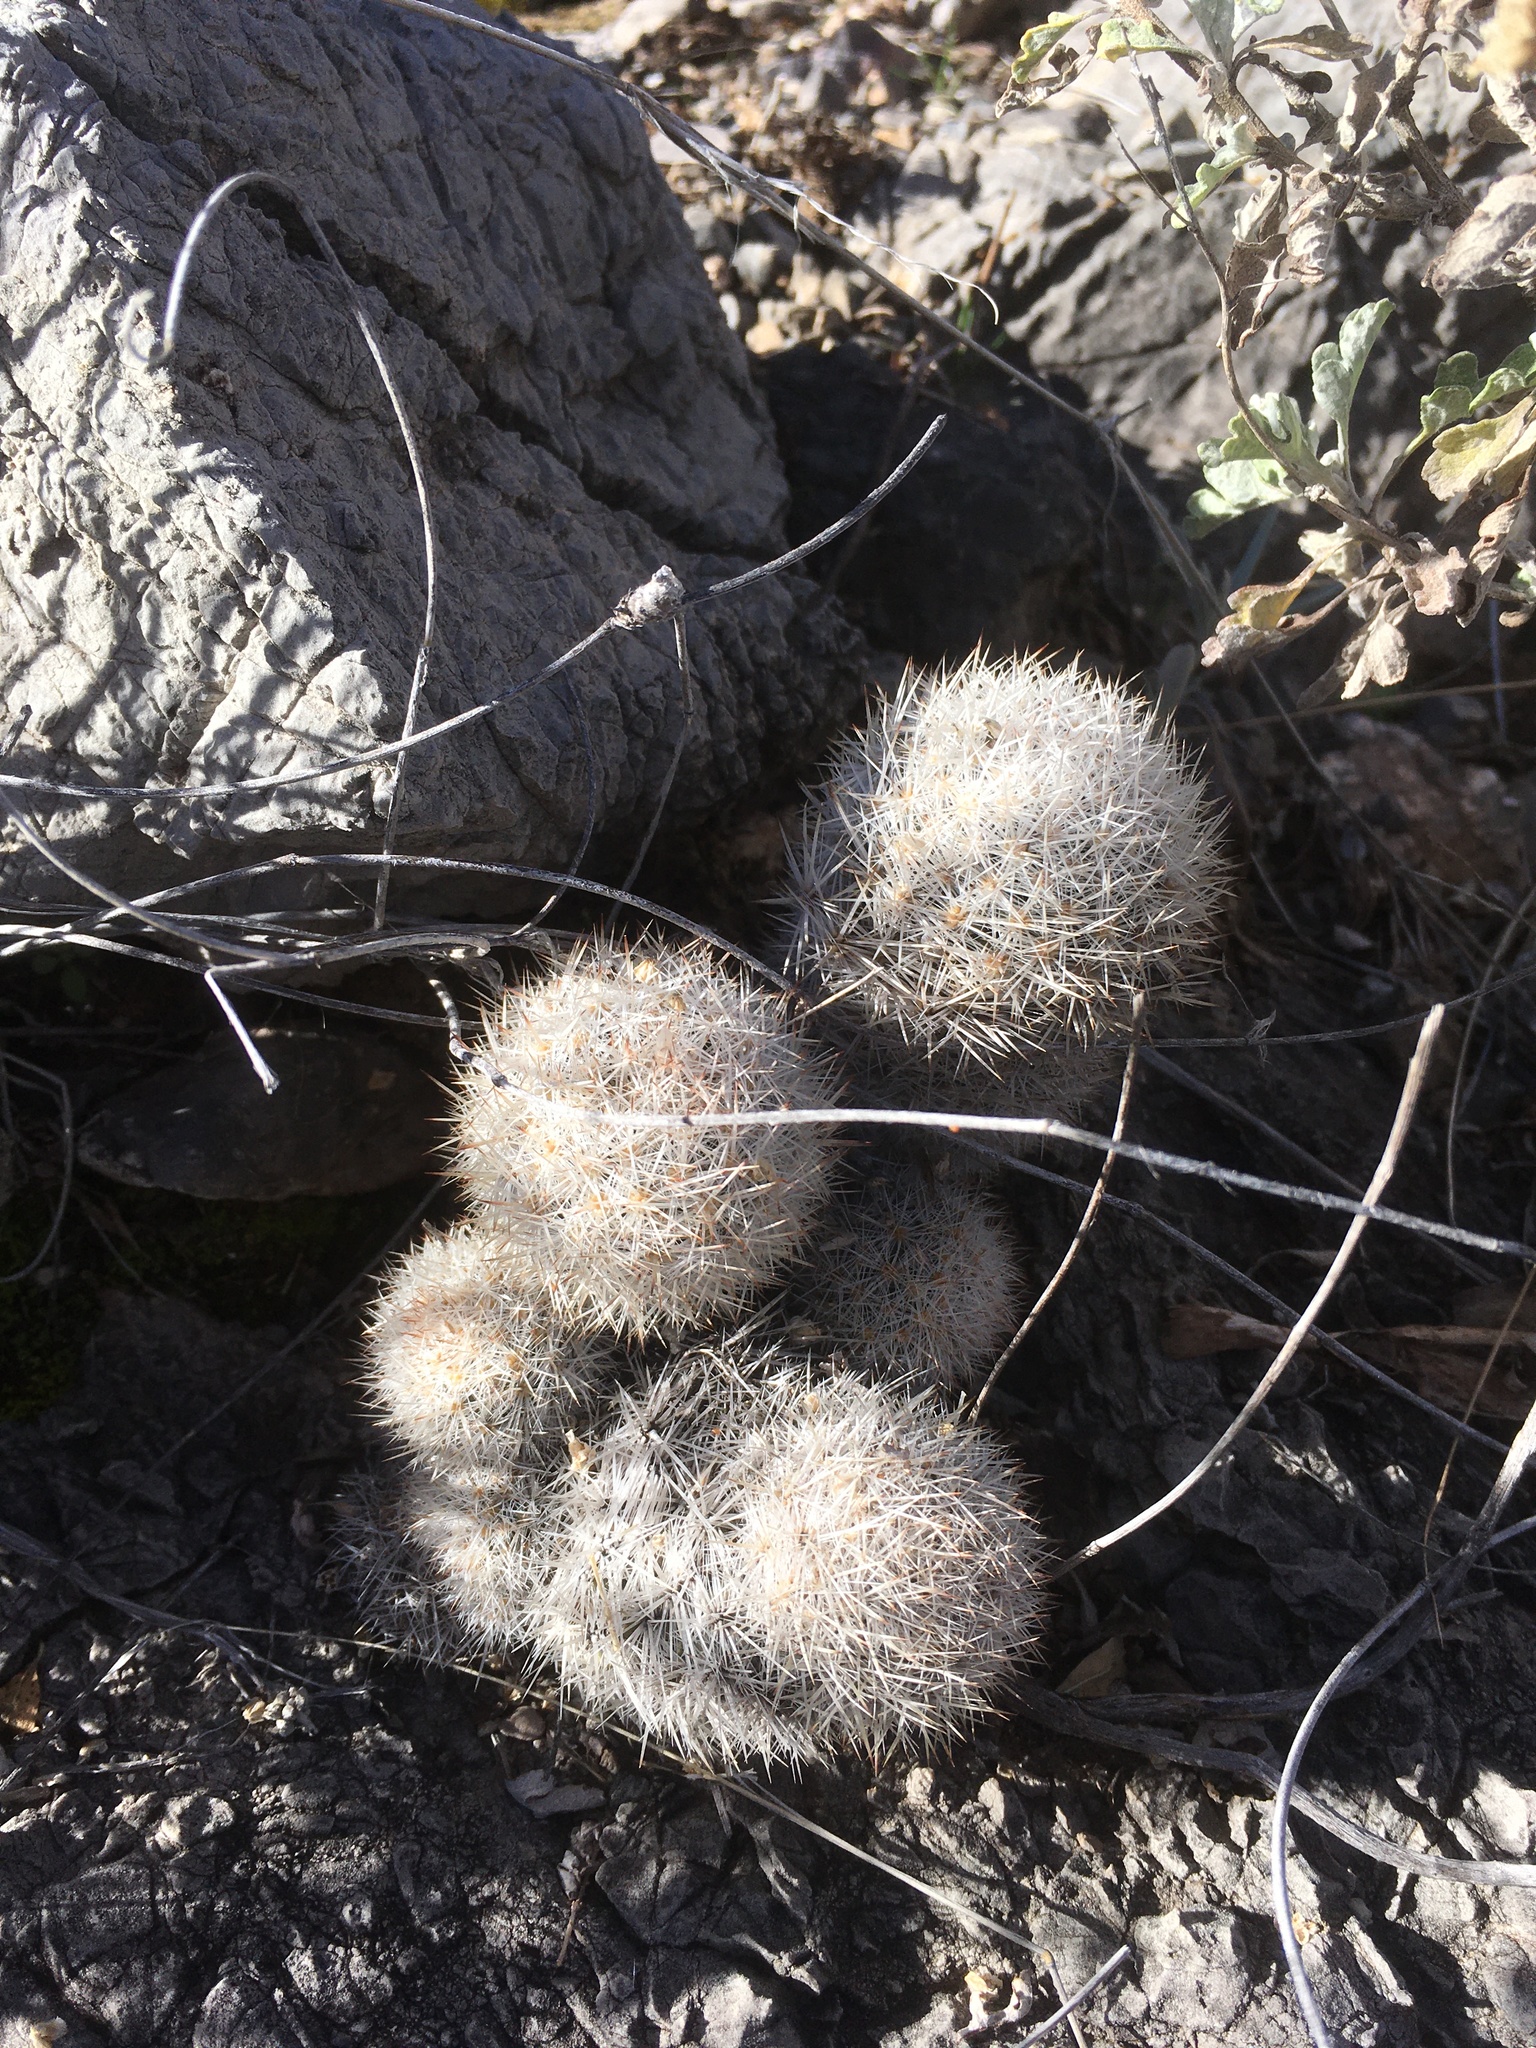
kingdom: Plantae
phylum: Tracheophyta
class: Magnoliopsida
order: Caryophyllales
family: Cactaceae
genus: Pelecyphora
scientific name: Pelecyphora sneedii
